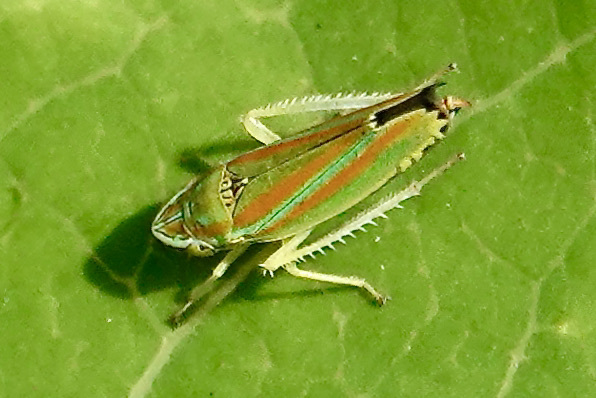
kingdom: Animalia
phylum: Arthropoda
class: Insecta
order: Hemiptera
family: Cicadellidae
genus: Graphocephala
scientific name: Graphocephala versuta
